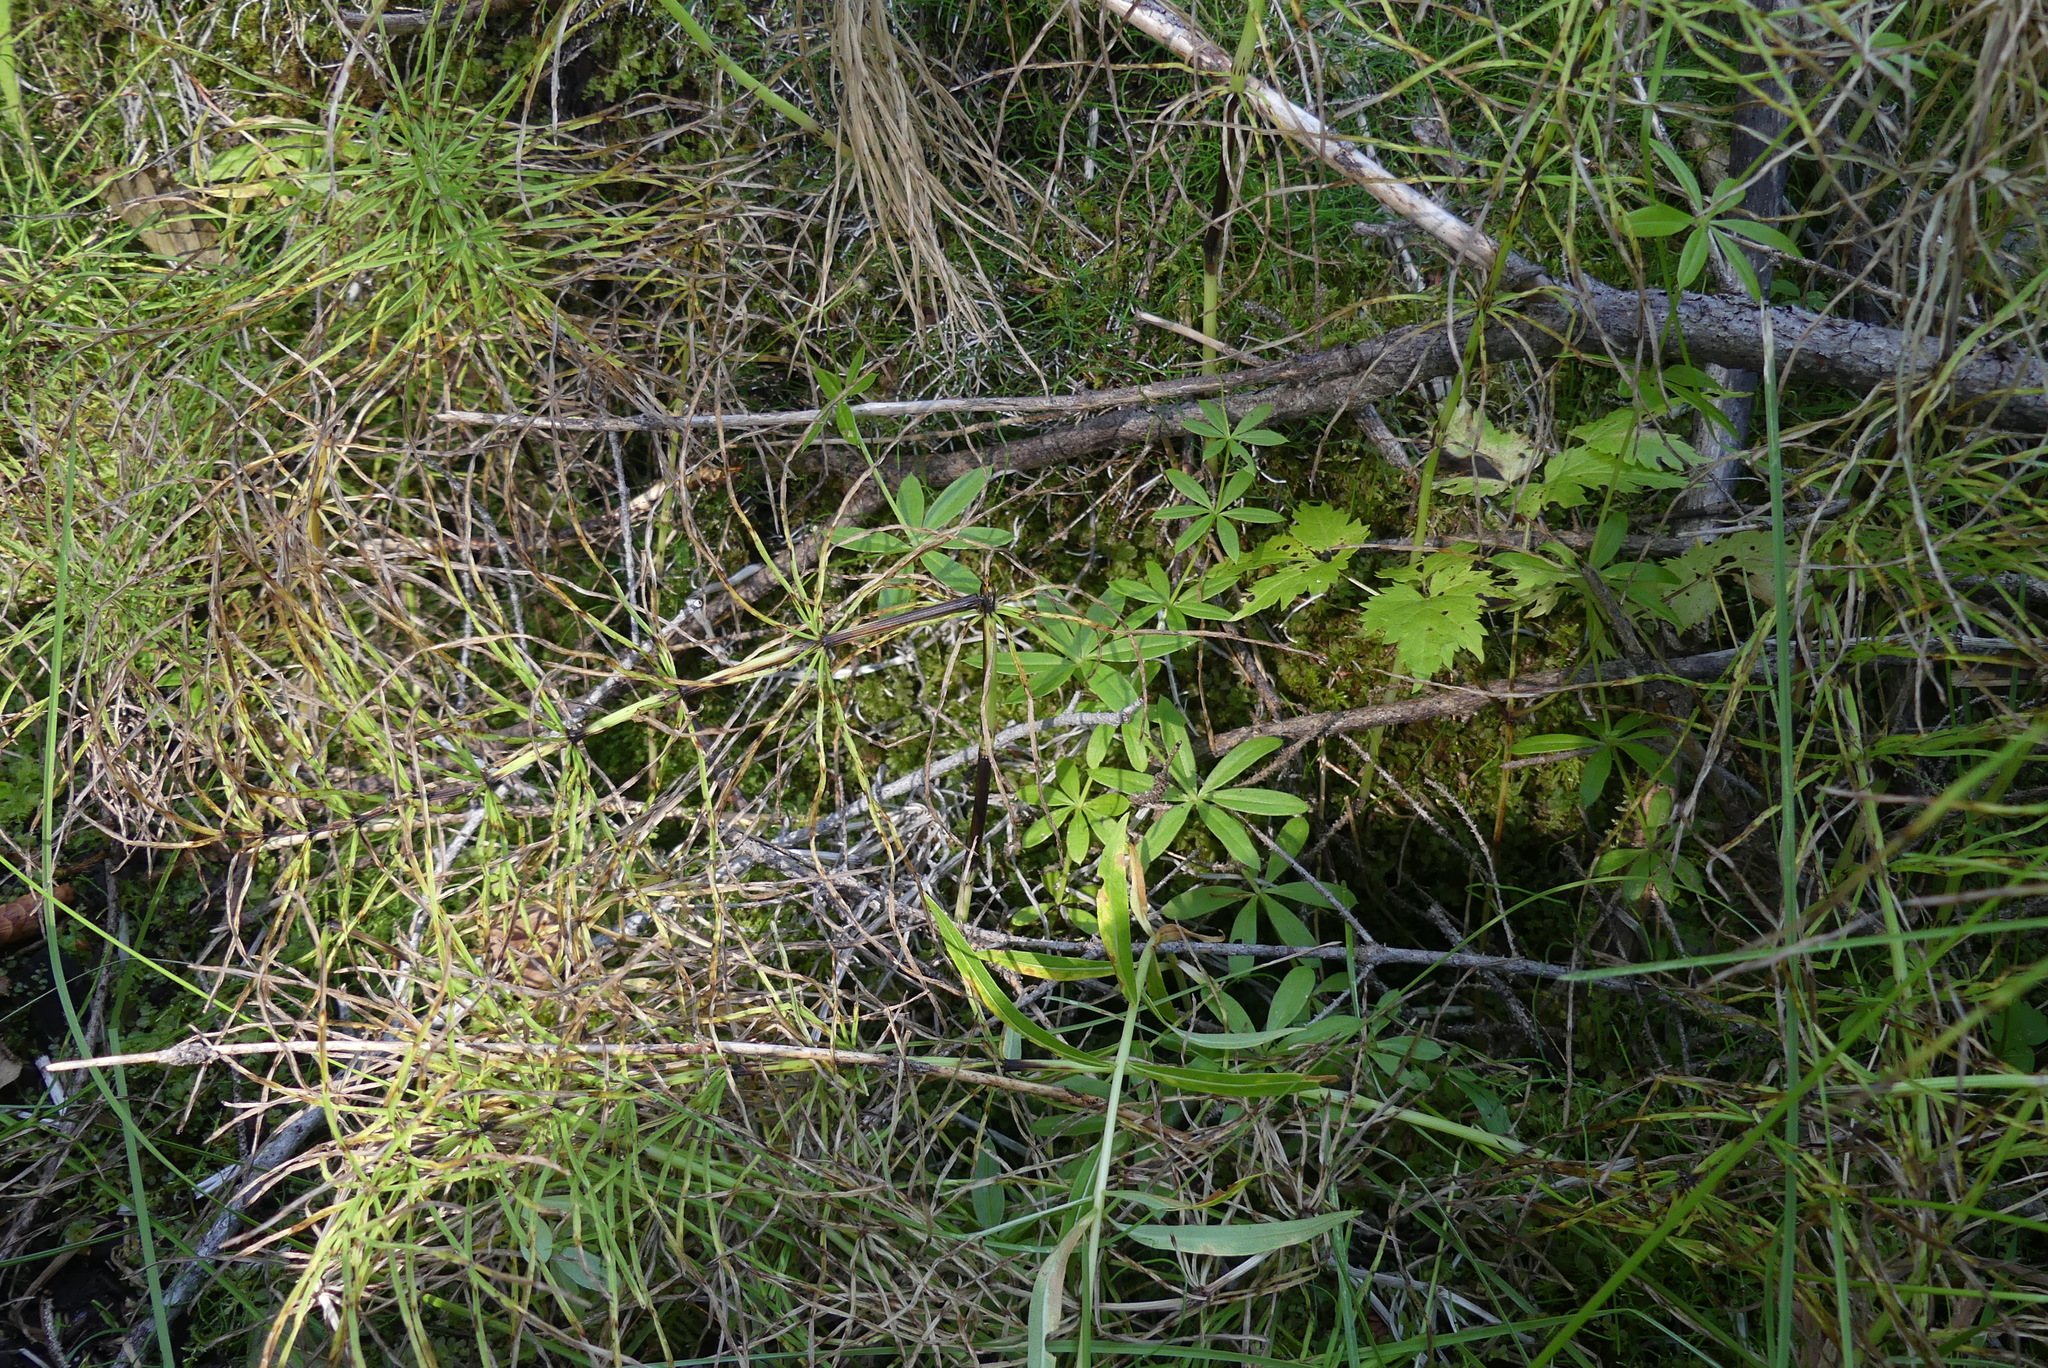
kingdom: Plantae
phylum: Tracheophyta
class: Magnoliopsida
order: Gentianales
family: Rubiaceae
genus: Galium
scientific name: Galium triflorum
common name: Fragrant bedstraw
